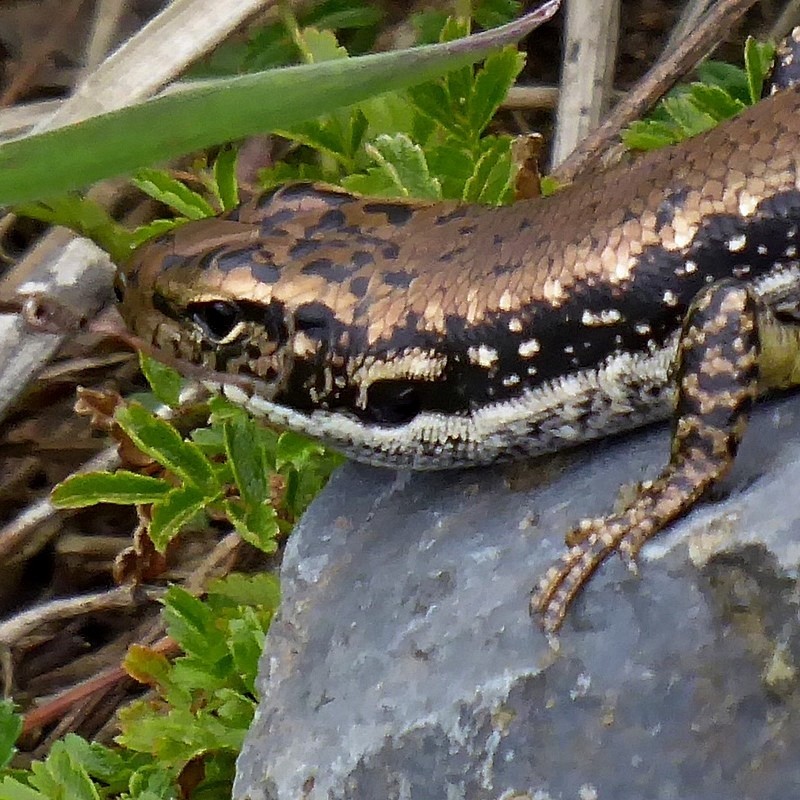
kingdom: Animalia
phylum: Chordata
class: Squamata
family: Scincidae
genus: Eulamprus
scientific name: Eulamprus heatwolei
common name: Warm-temperate water-skink
